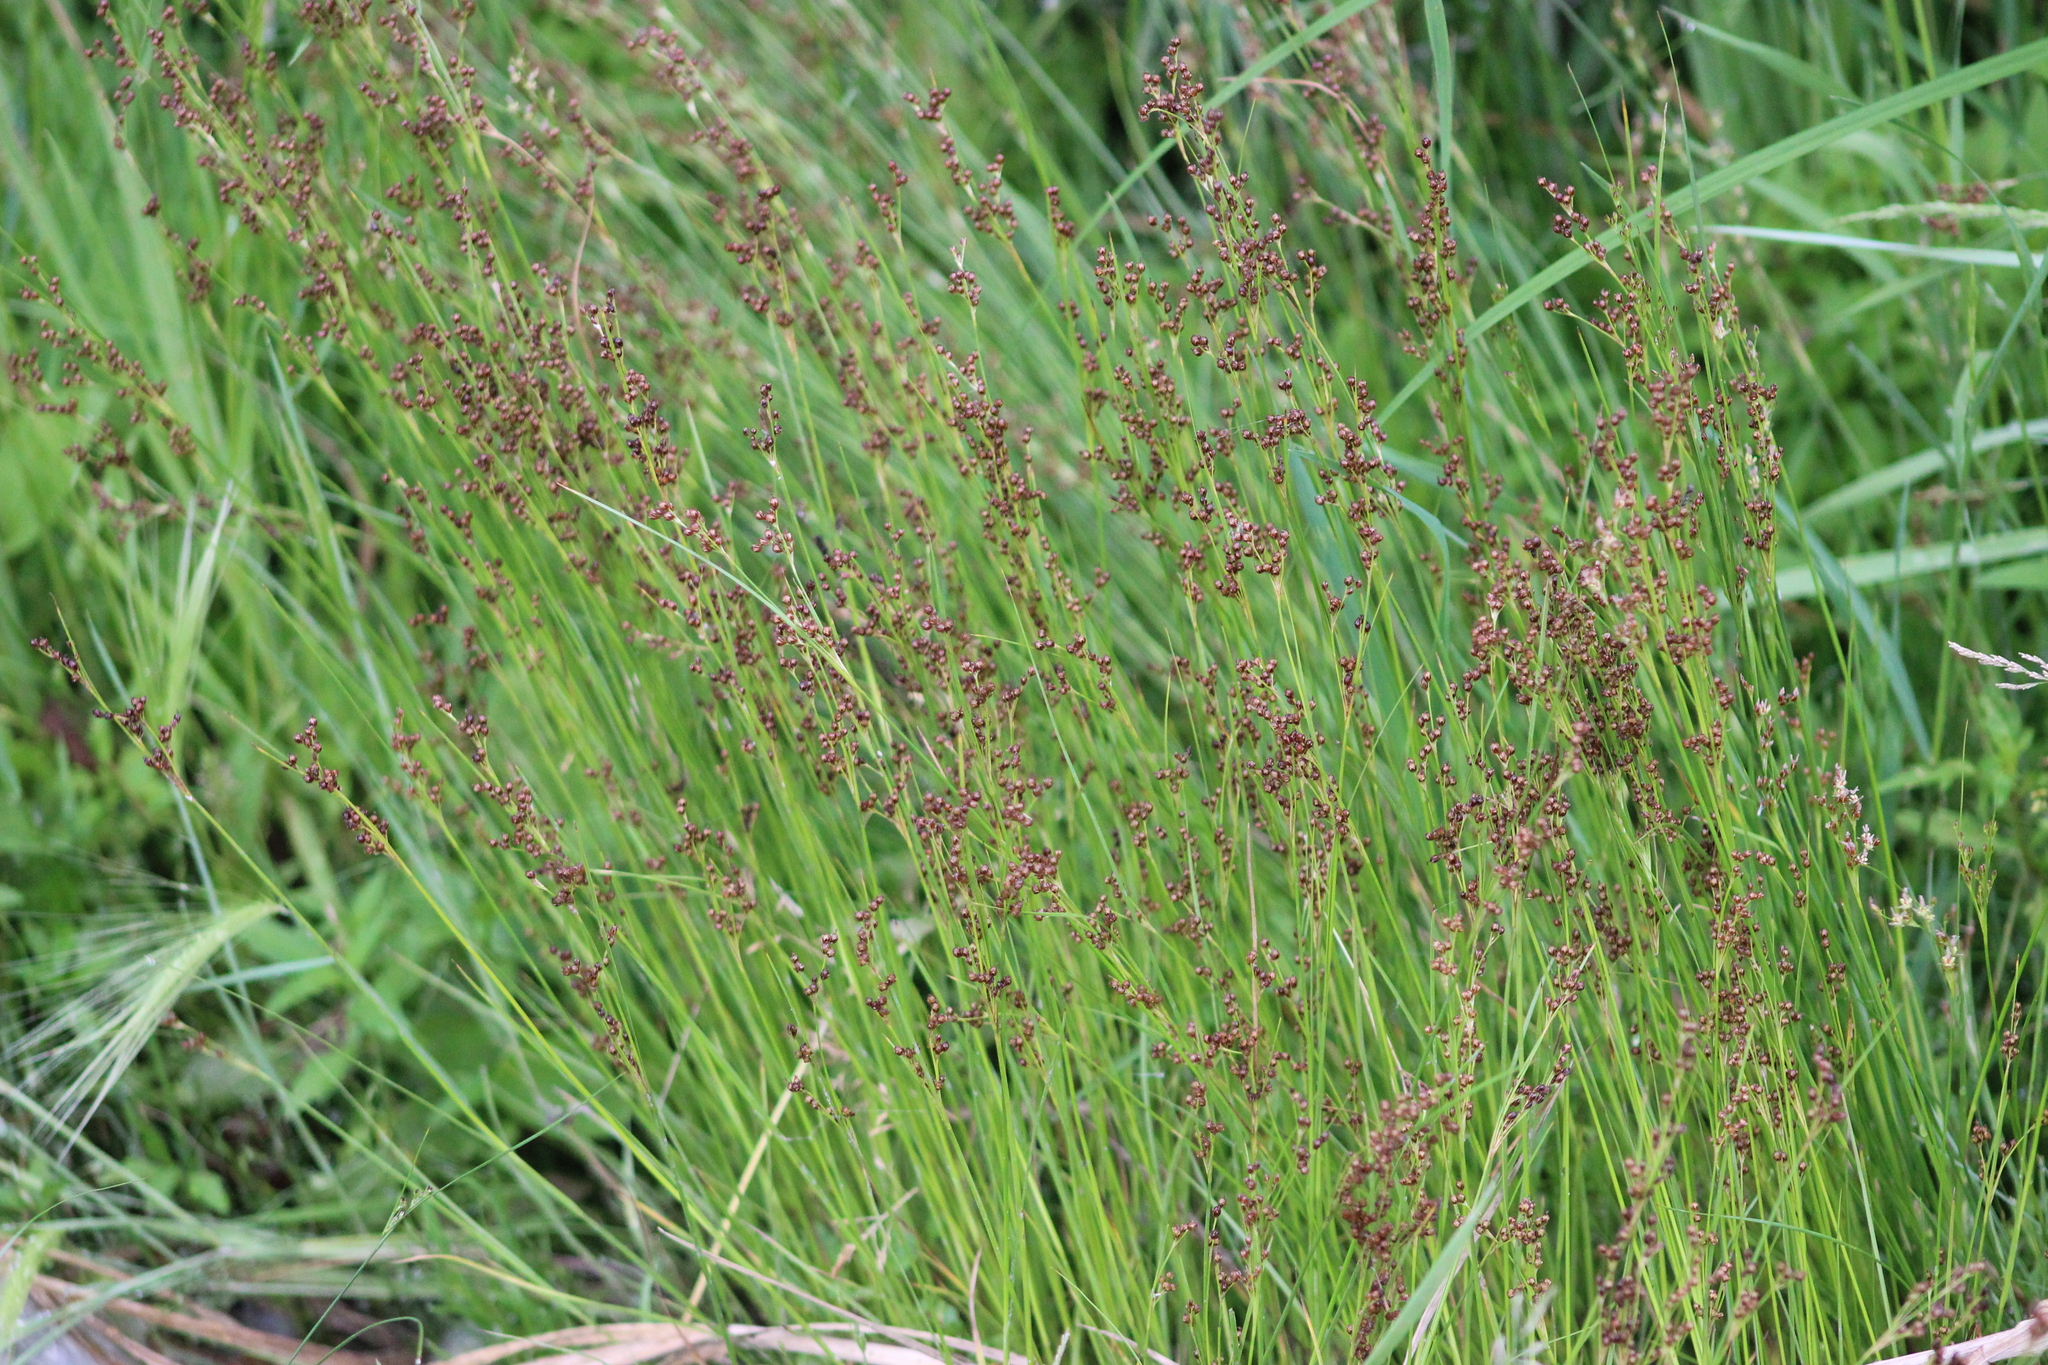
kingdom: Plantae
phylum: Tracheophyta
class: Liliopsida
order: Poales
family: Juncaceae
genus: Juncus
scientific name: Juncus compressus
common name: Round-fruited rush
